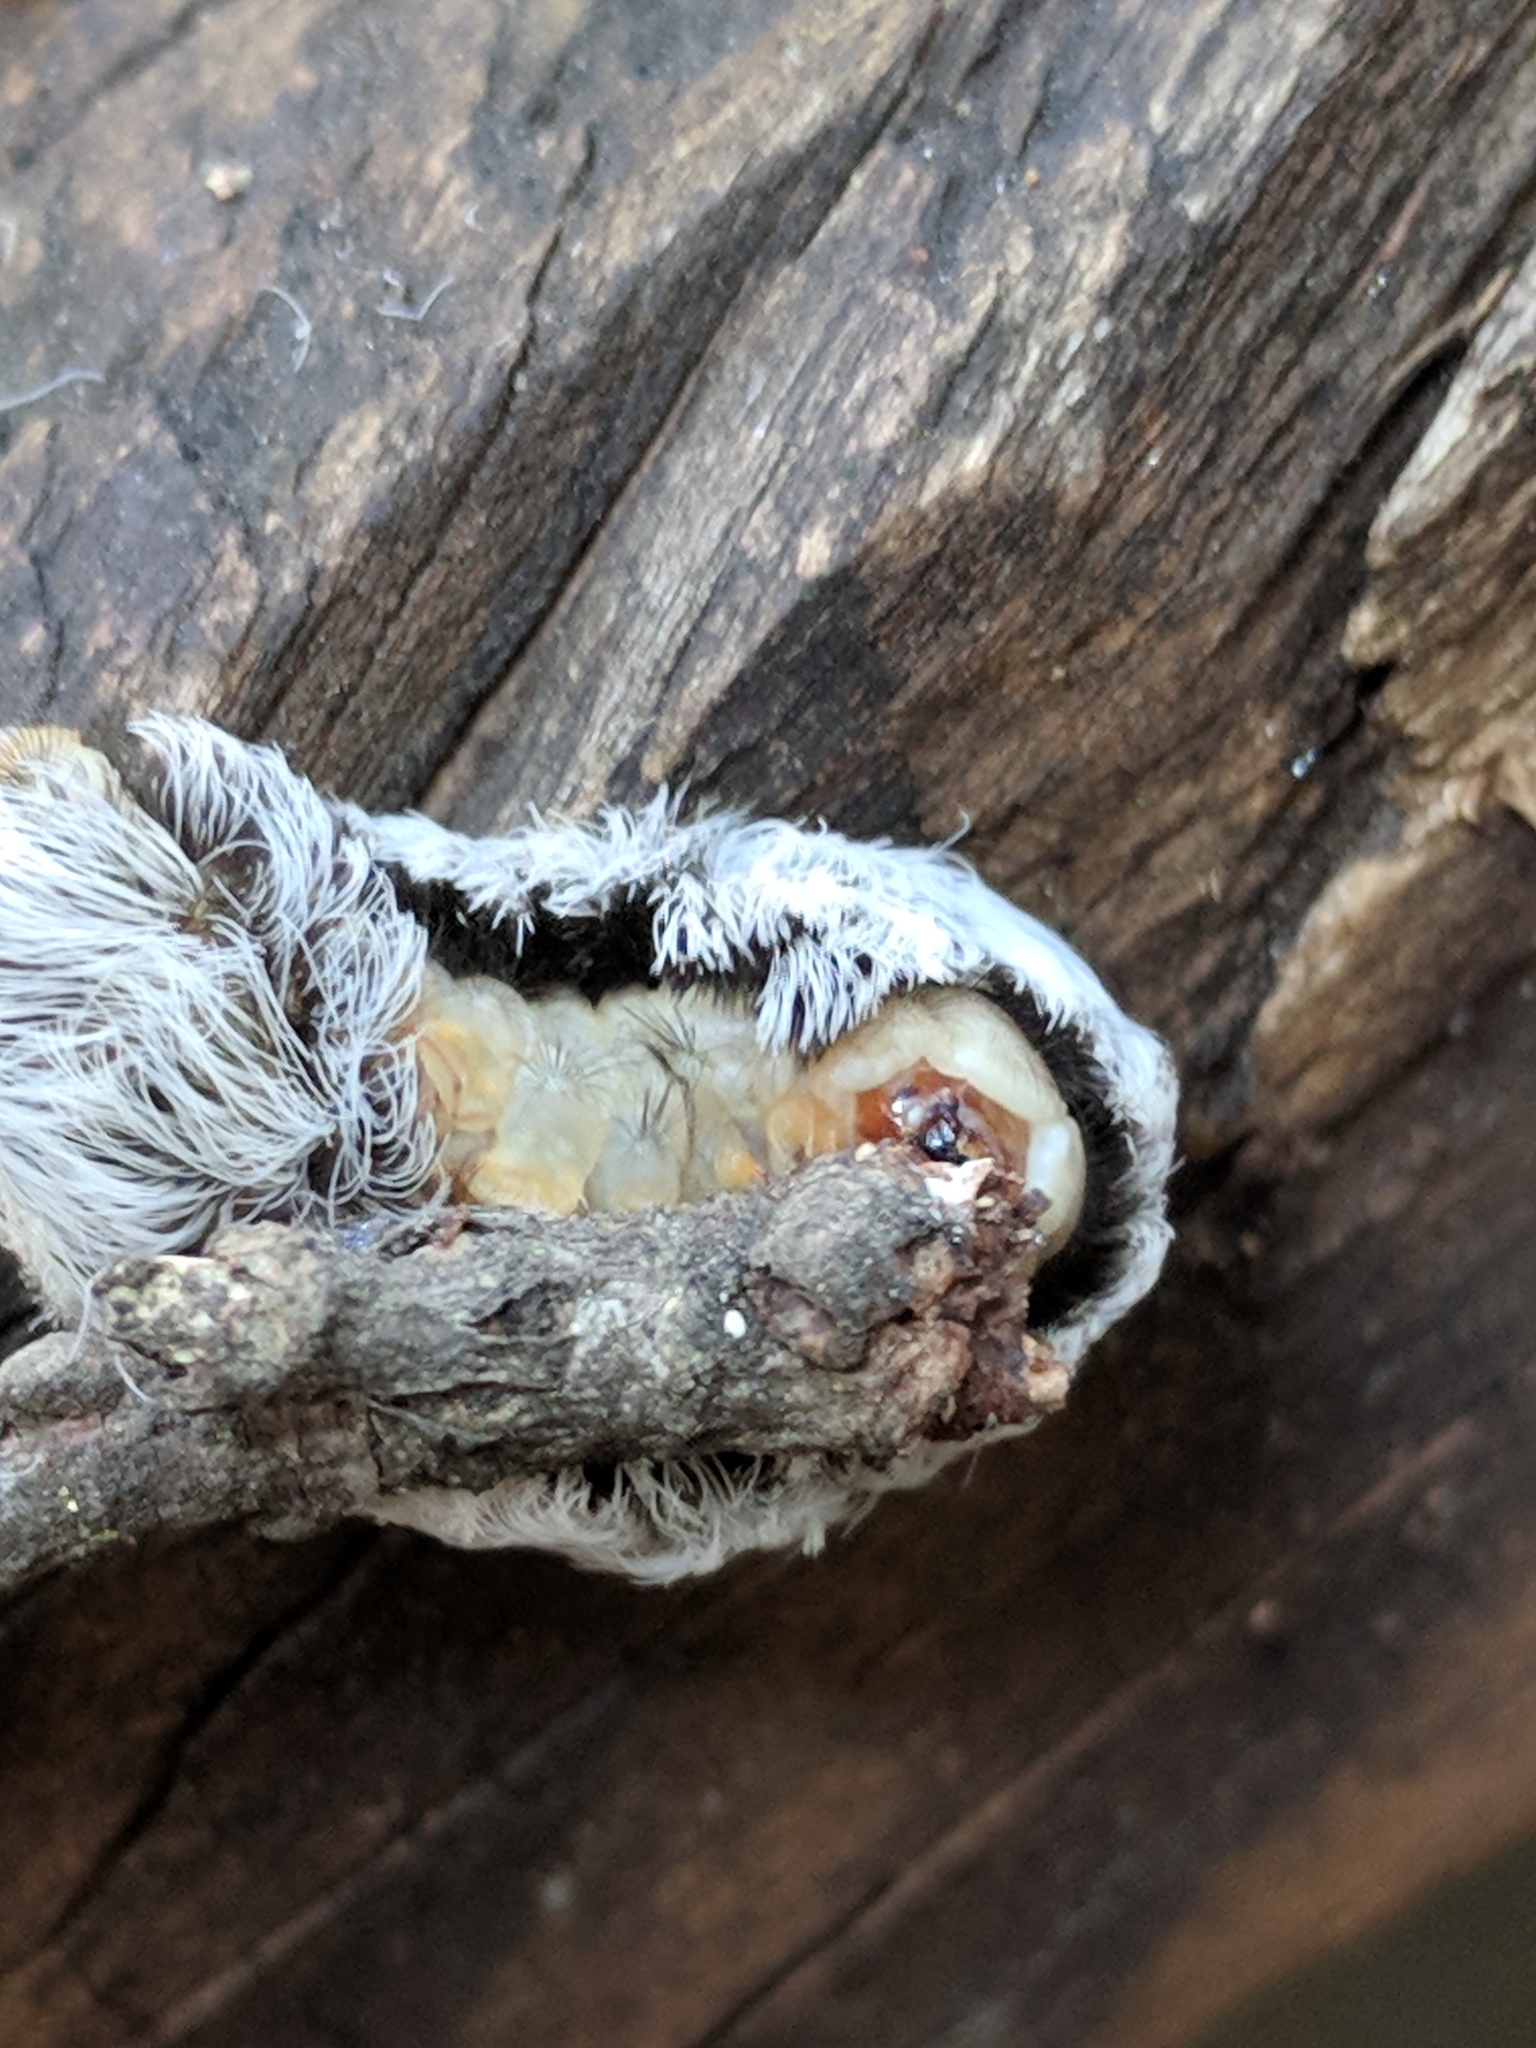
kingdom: Animalia
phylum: Arthropoda
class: Insecta
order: Lepidoptera
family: Megalopygidae
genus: Megalopyge
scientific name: Megalopyge opercularis
